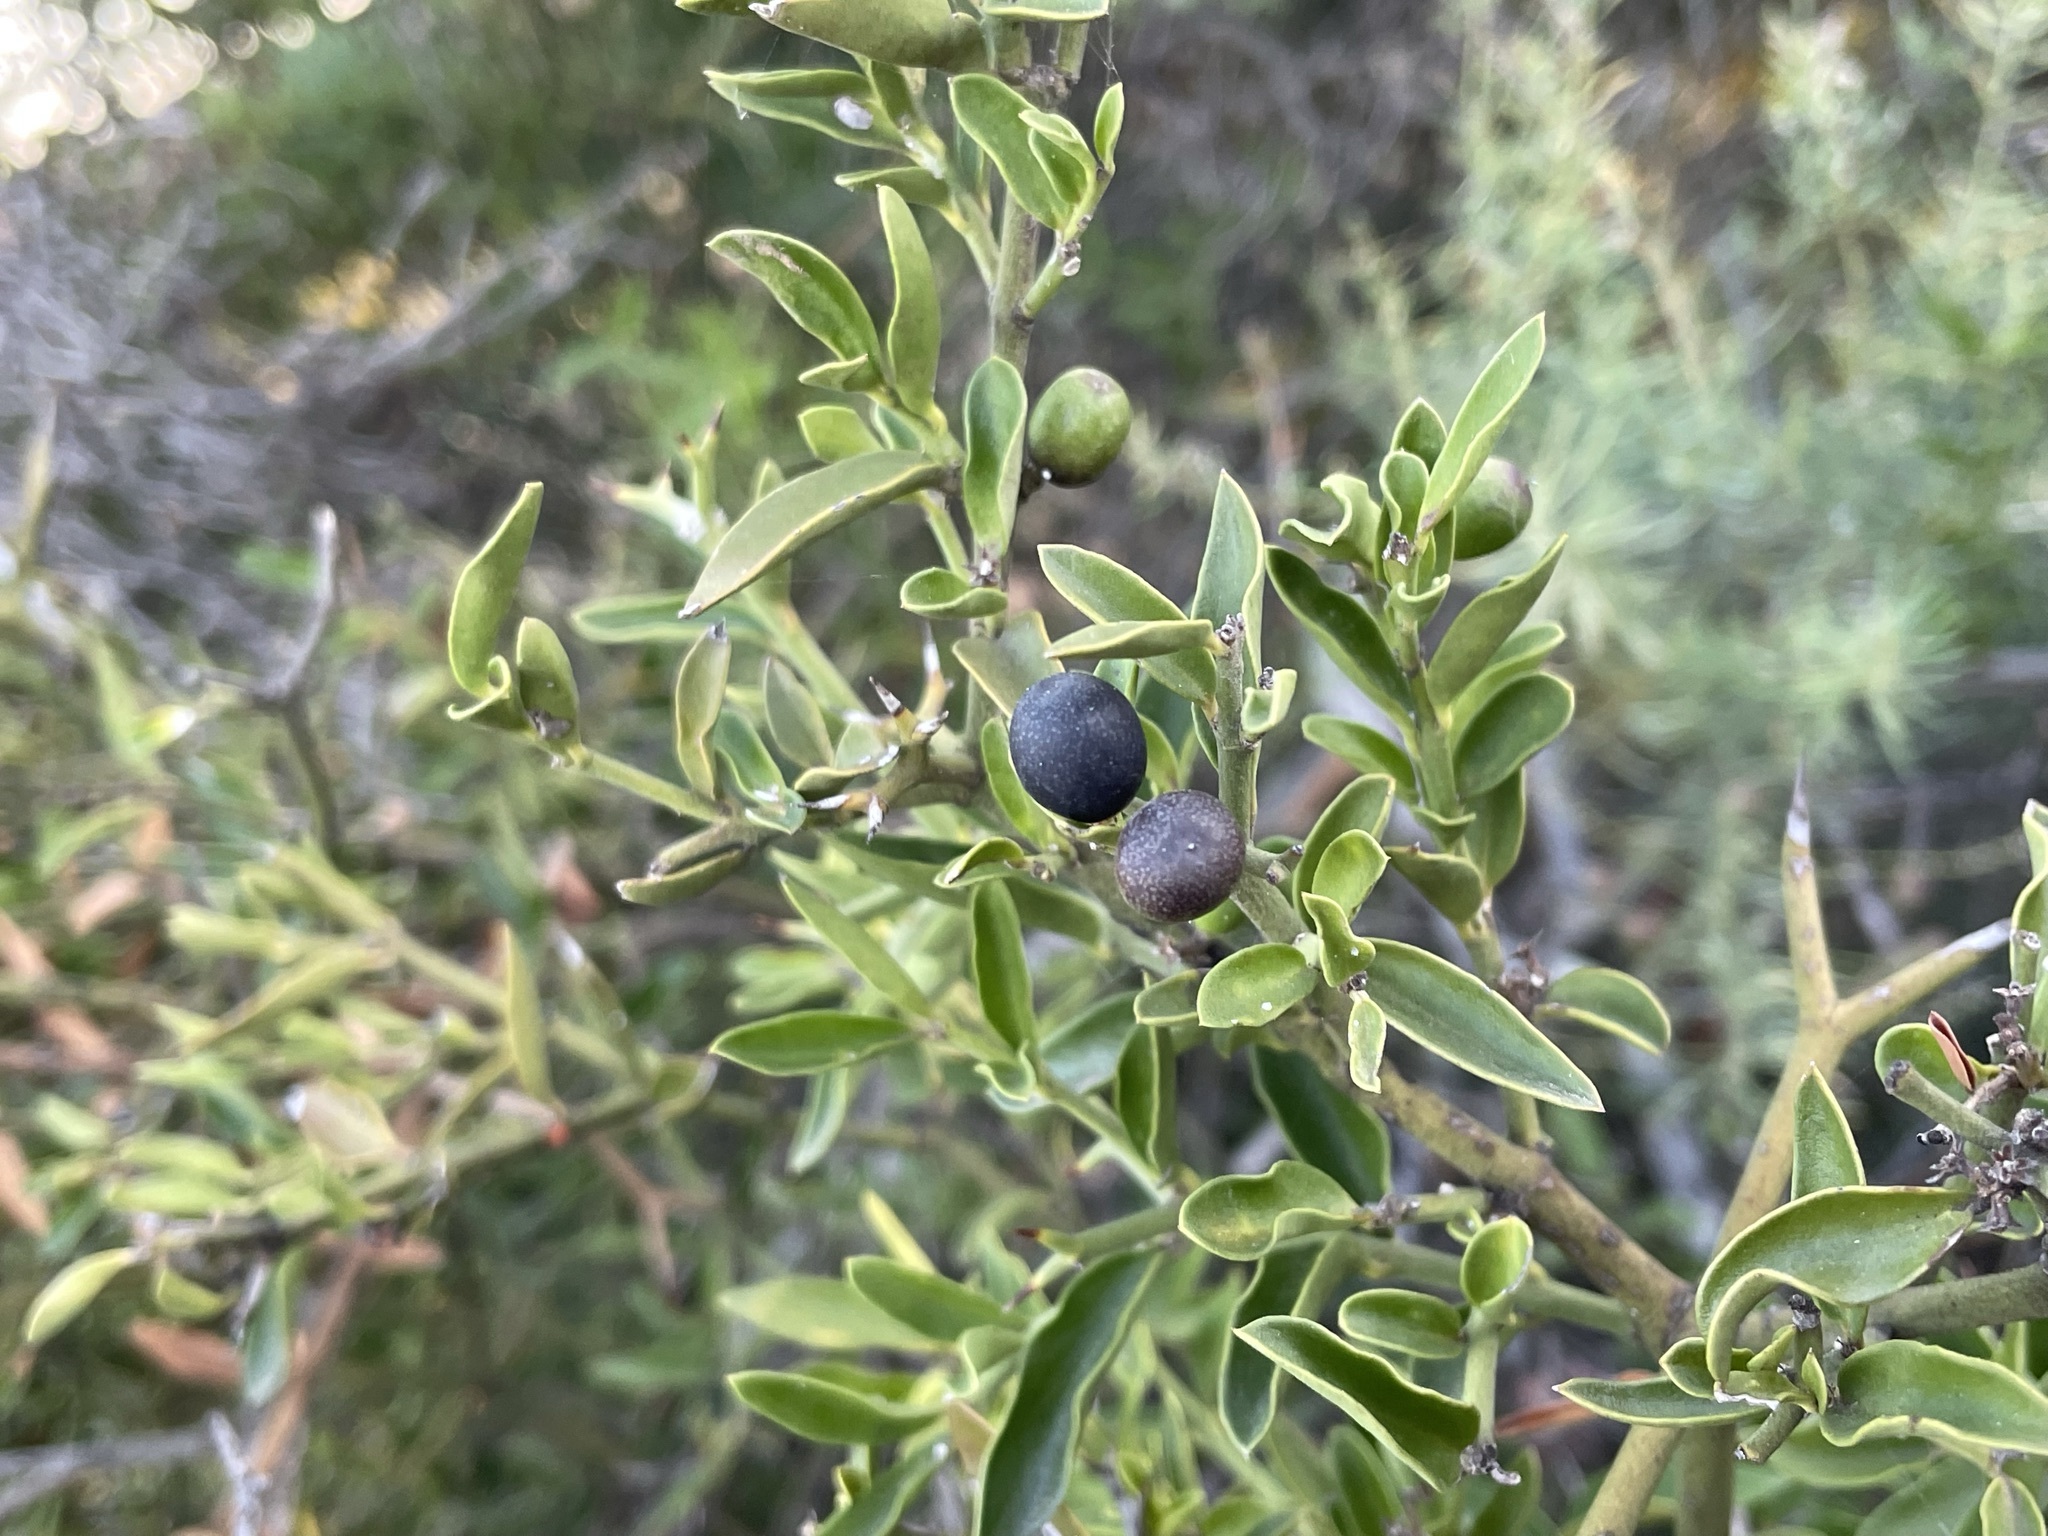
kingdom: Plantae
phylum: Tracheophyta
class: Magnoliopsida
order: Gentianales
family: Apocynaceae
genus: Carissa
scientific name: Carissa haematocarpa
